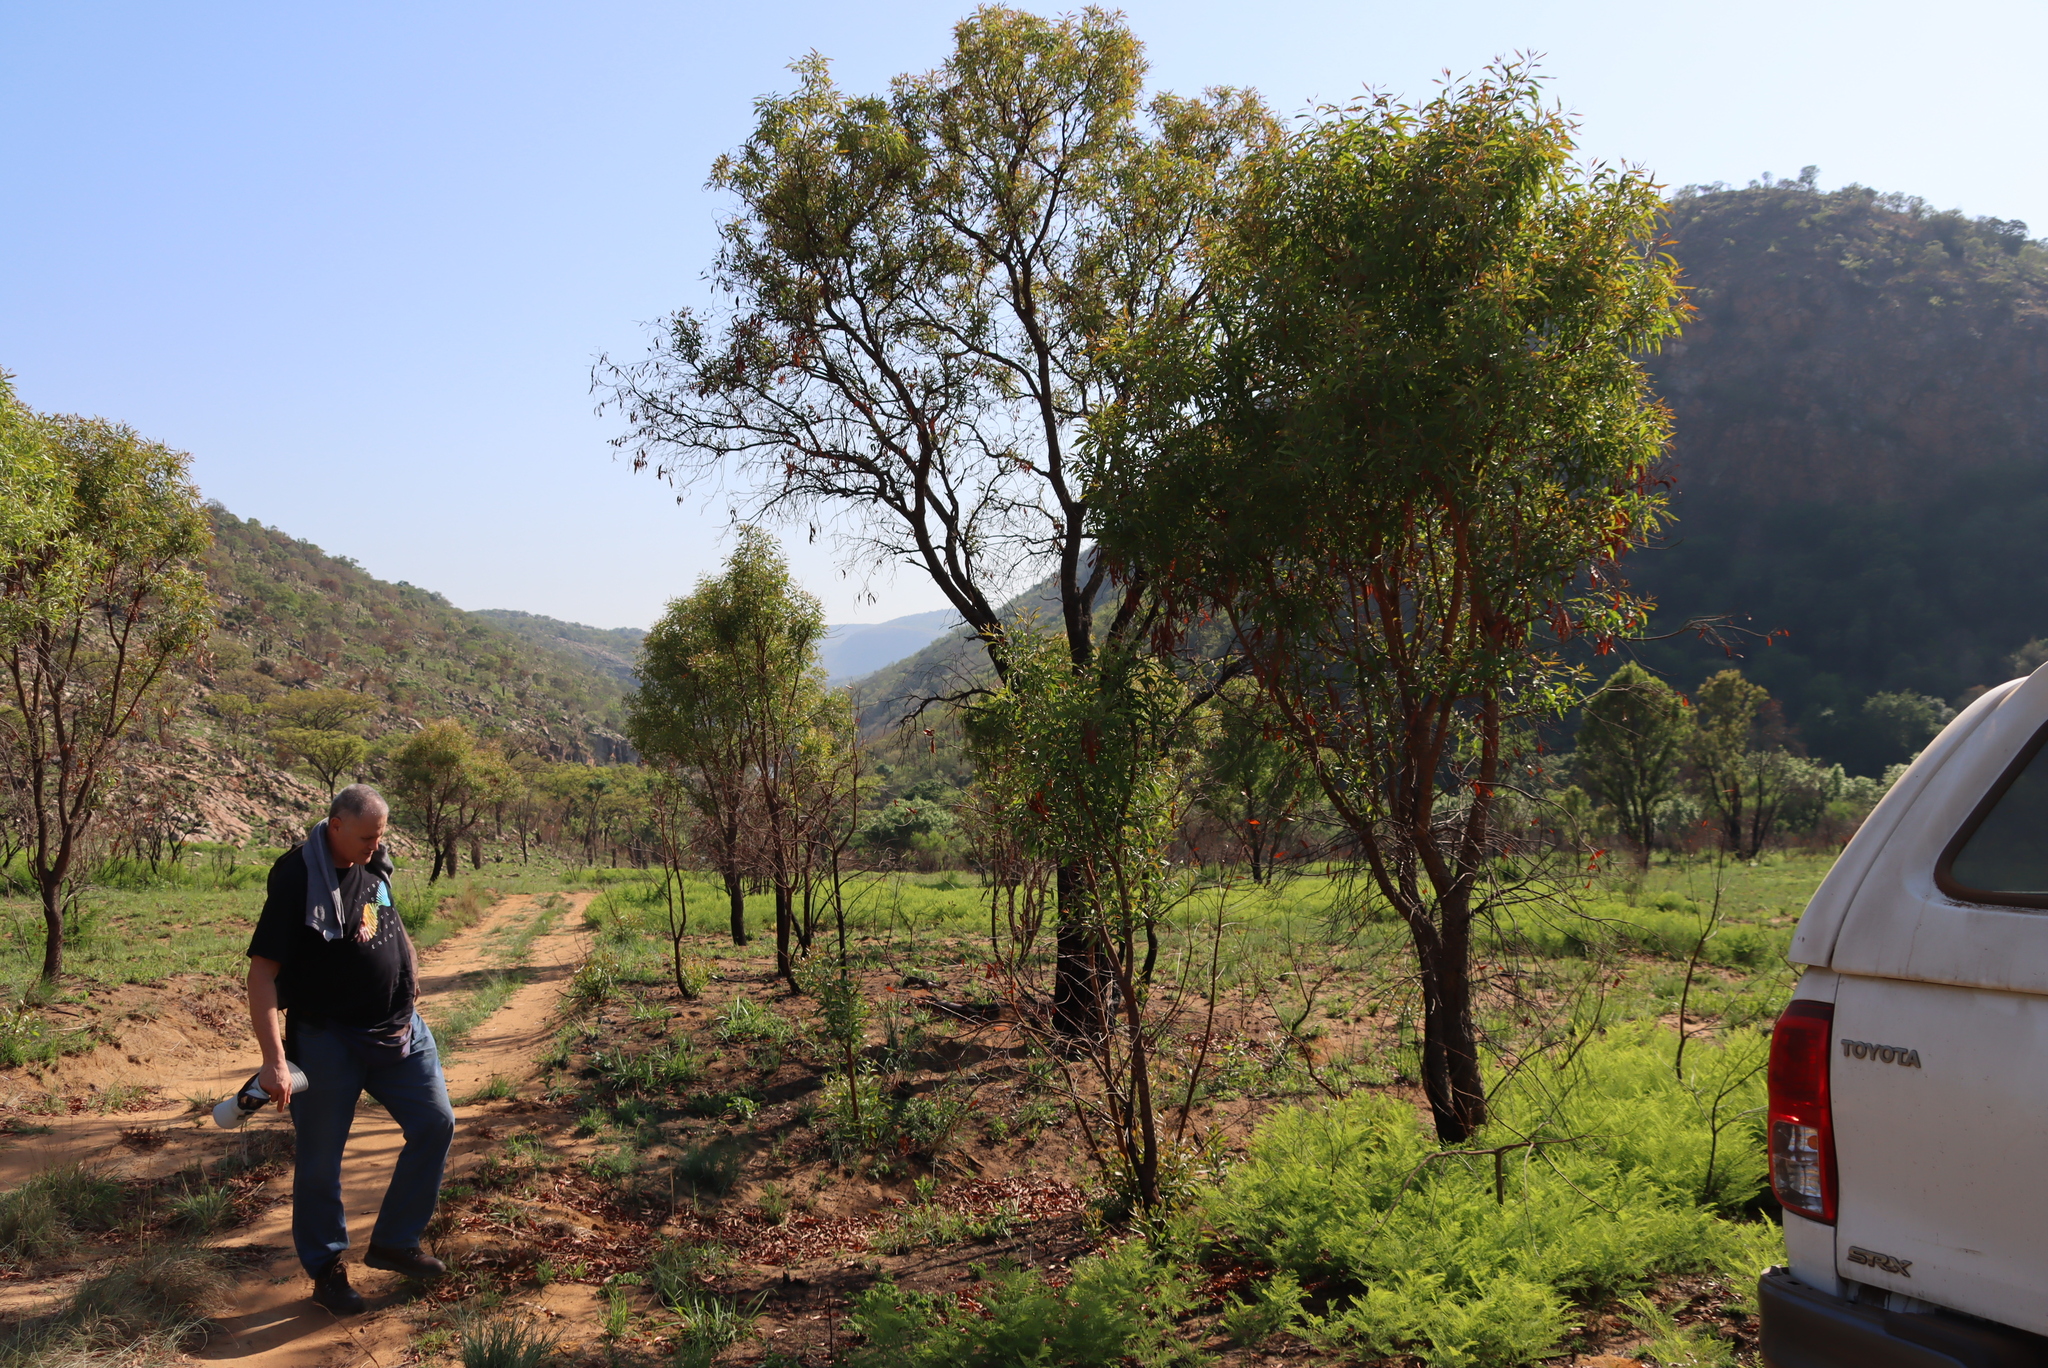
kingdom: Plantae
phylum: Tracheophyta
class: Magnoliopsida
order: Proteales
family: Proteaceae
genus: Faurea
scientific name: Faurea saligna
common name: African bean
